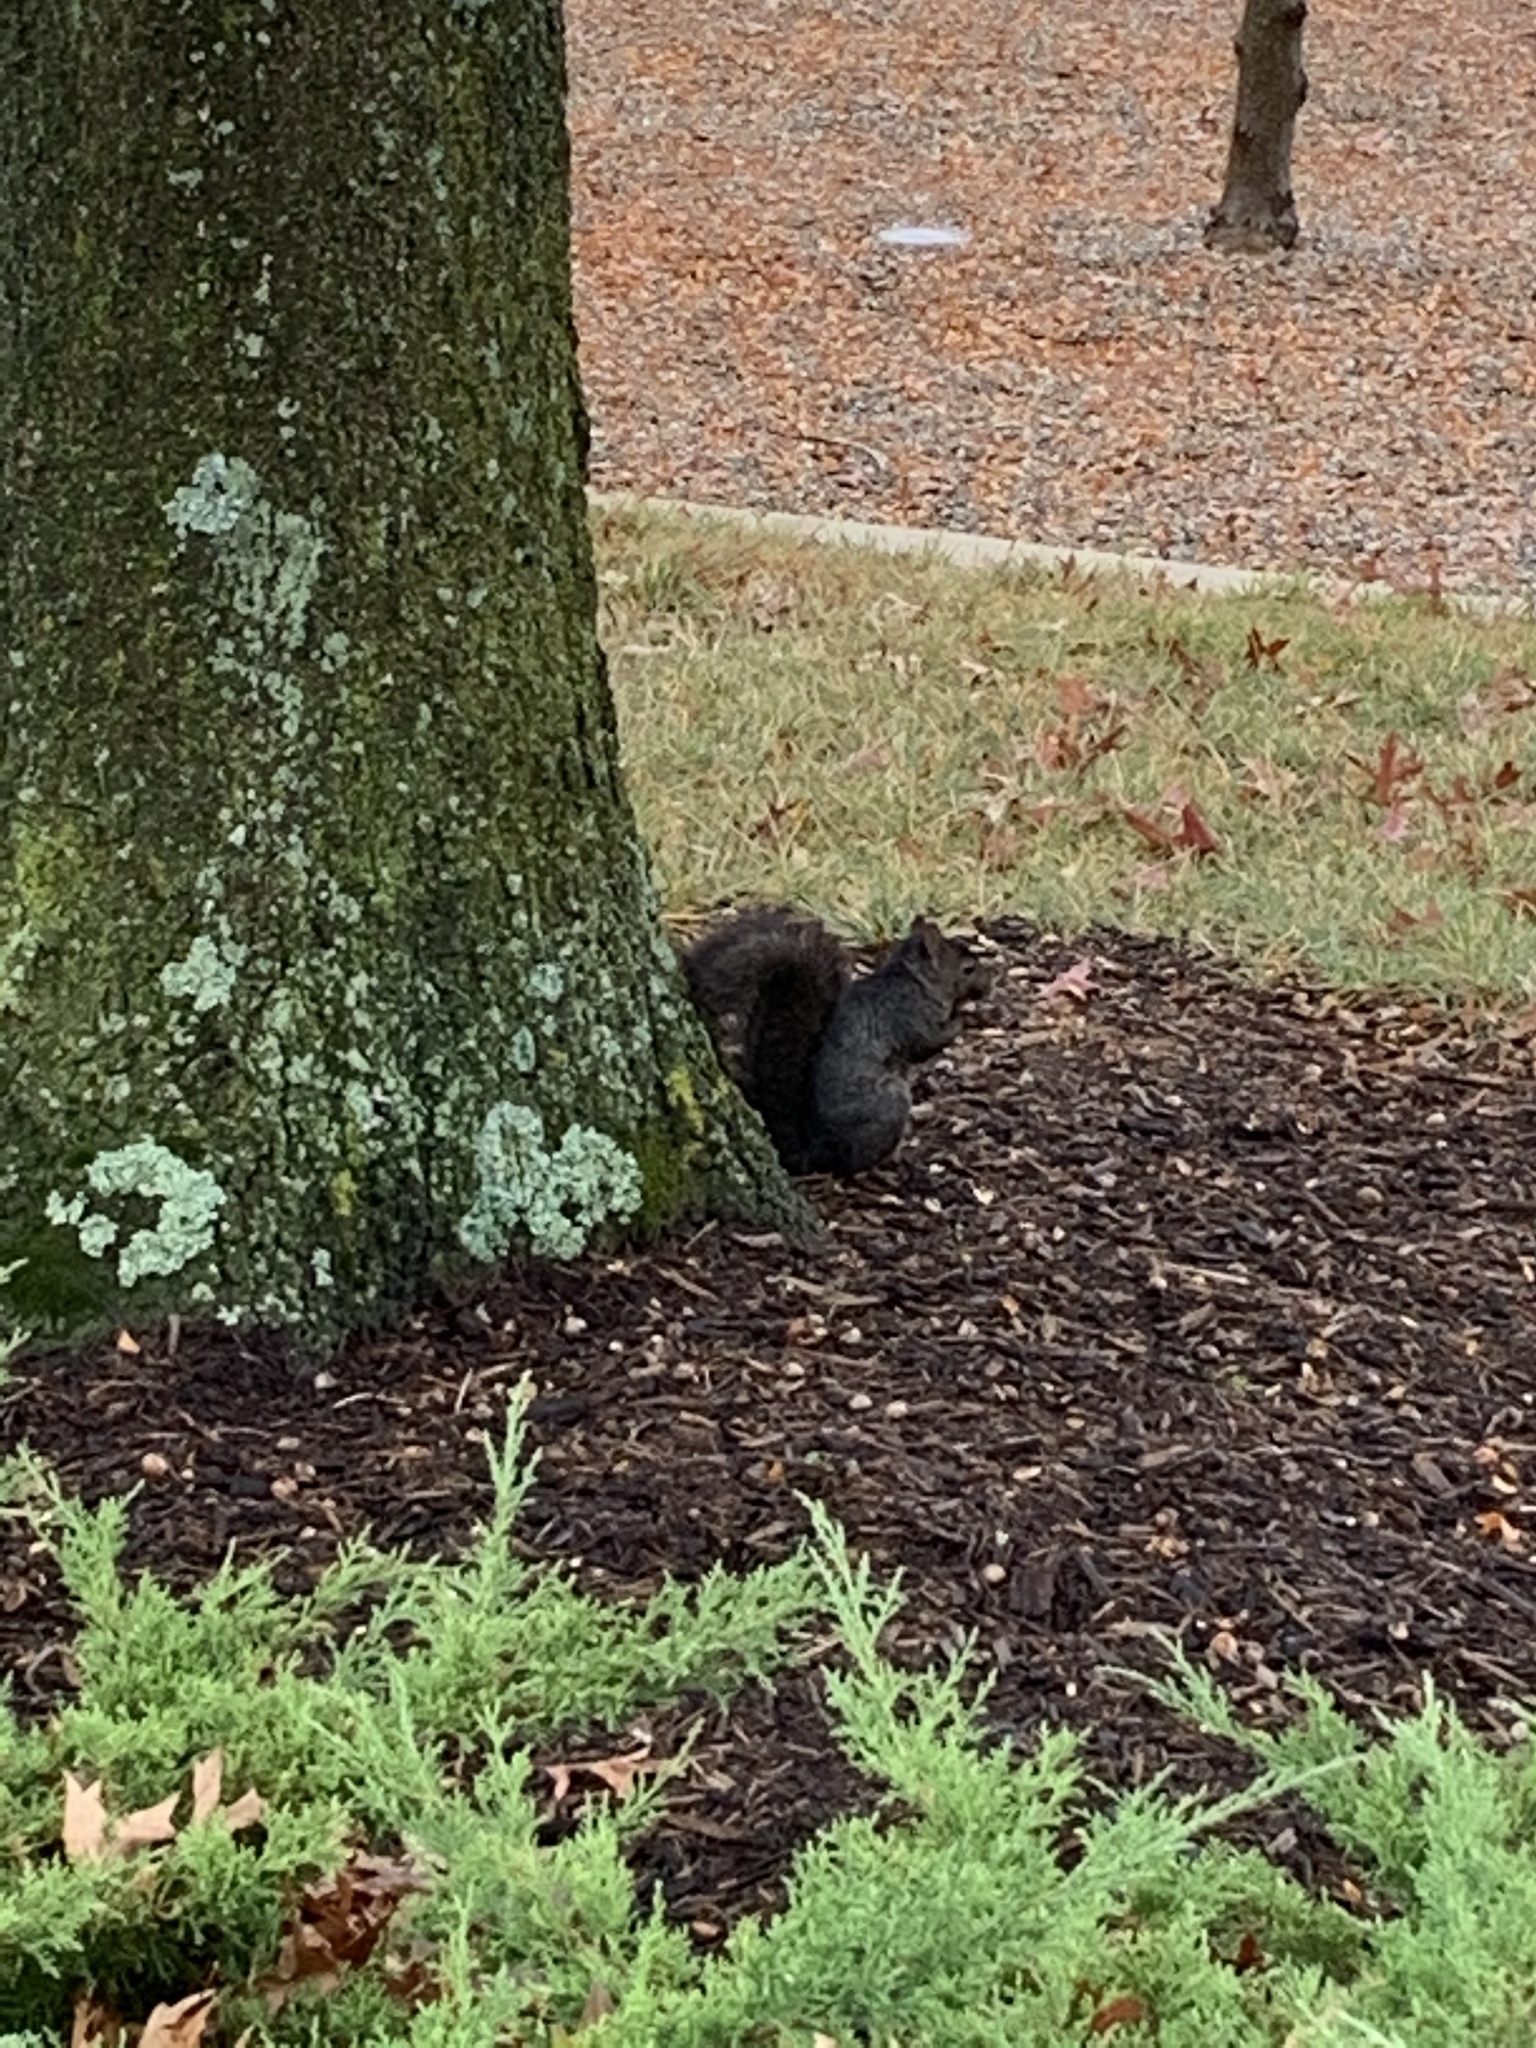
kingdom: Animalia
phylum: Chordata
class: Mammalia
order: Rodentia
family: Sciuridae
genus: Sciurus
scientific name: Sciurus carolinensis
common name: Eastern gray squirrel
